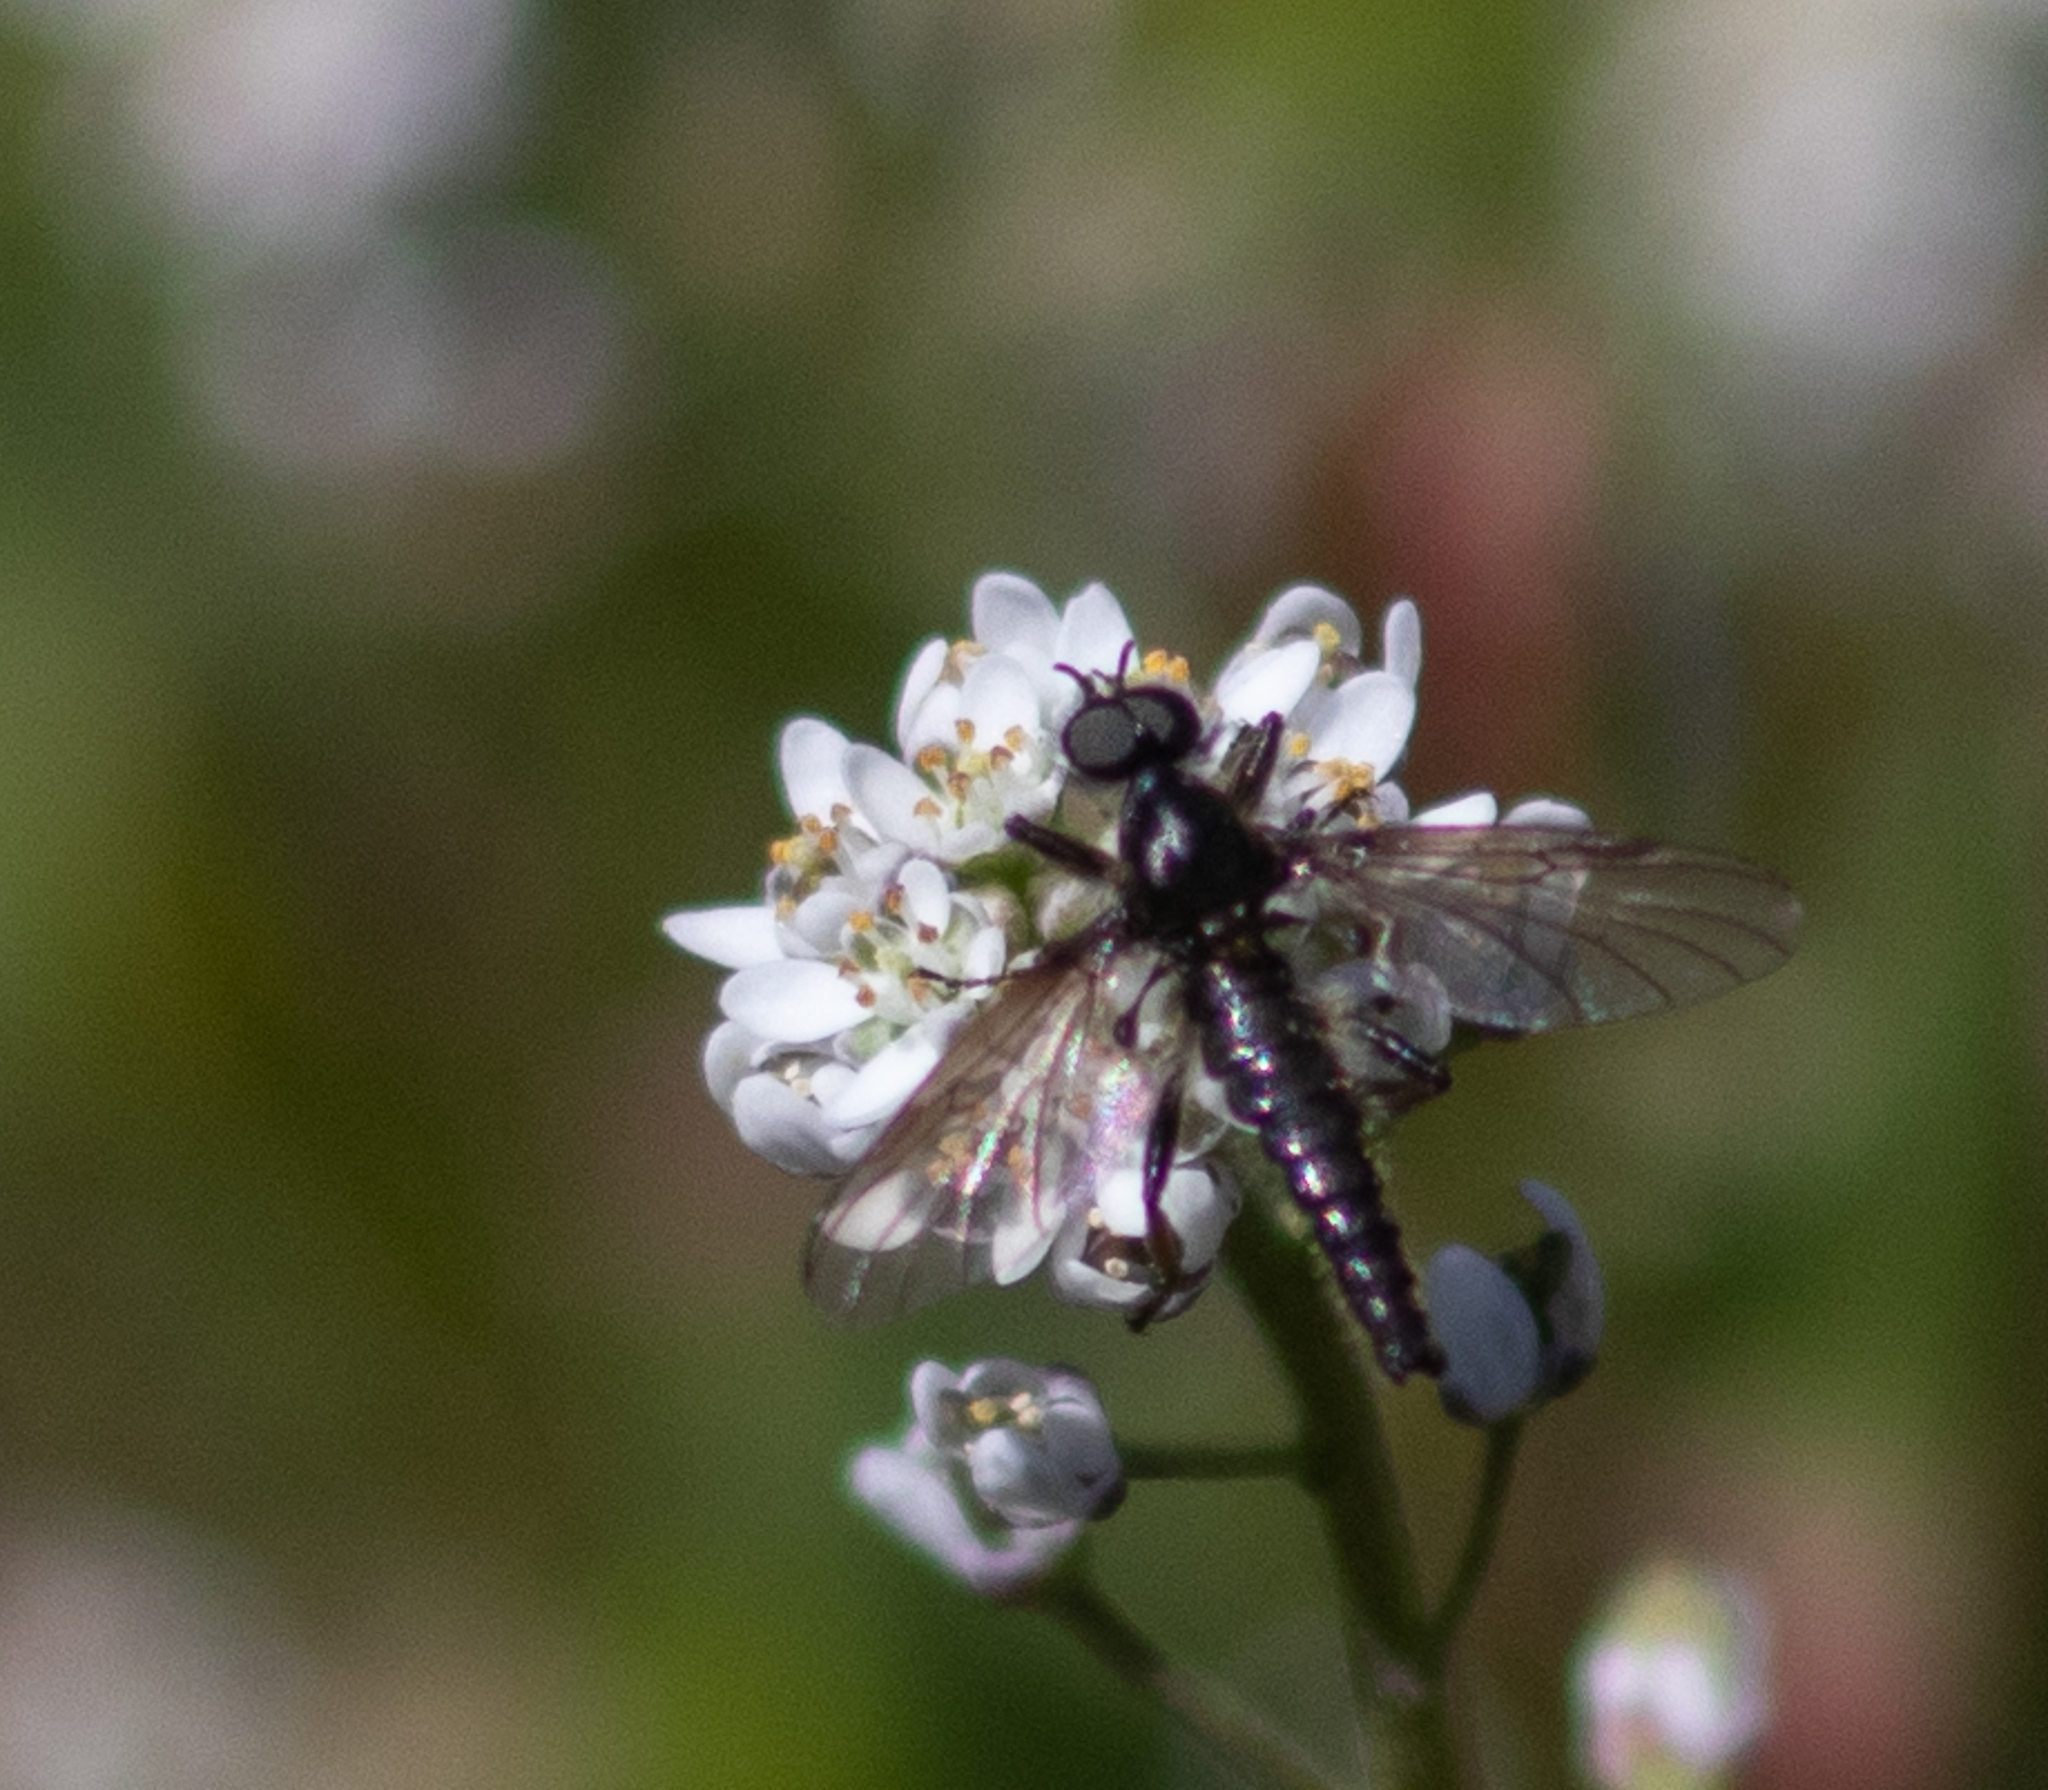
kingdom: Animalia
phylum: Arthropoda
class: Insecta
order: Diptera
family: Bibionidae
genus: Bibio
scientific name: Bibio lanigerus
